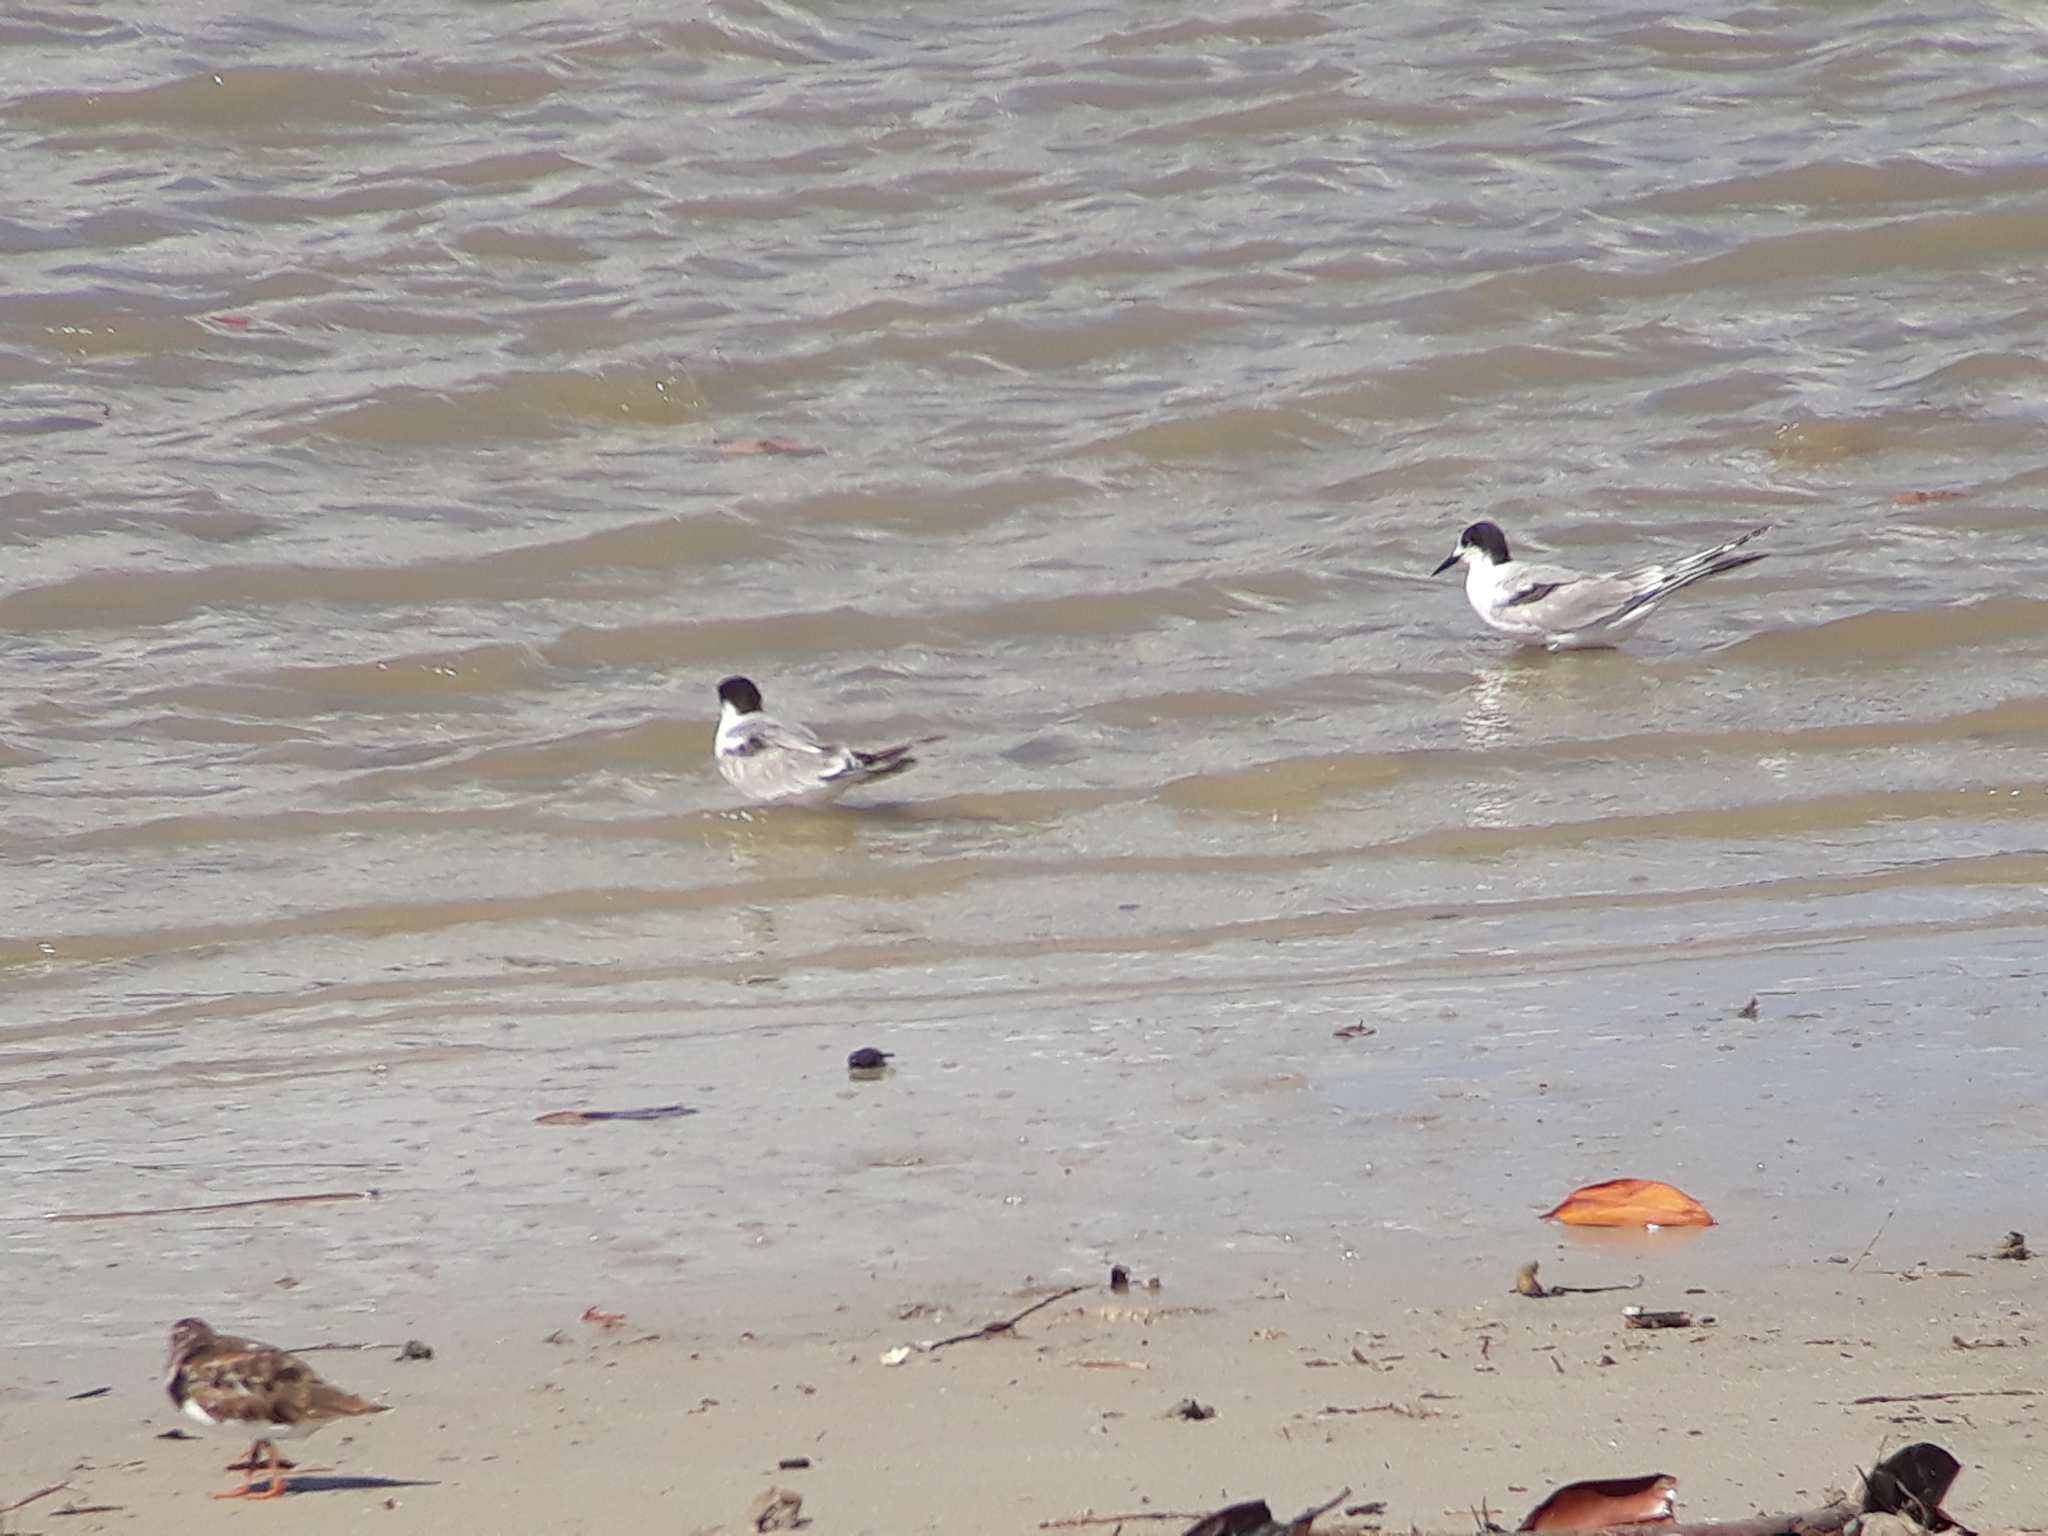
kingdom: Animalia
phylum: Chordata
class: Aves
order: Charadriiformes
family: Laridae
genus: Sterna
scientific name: Sterna hirundo
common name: Common tern
